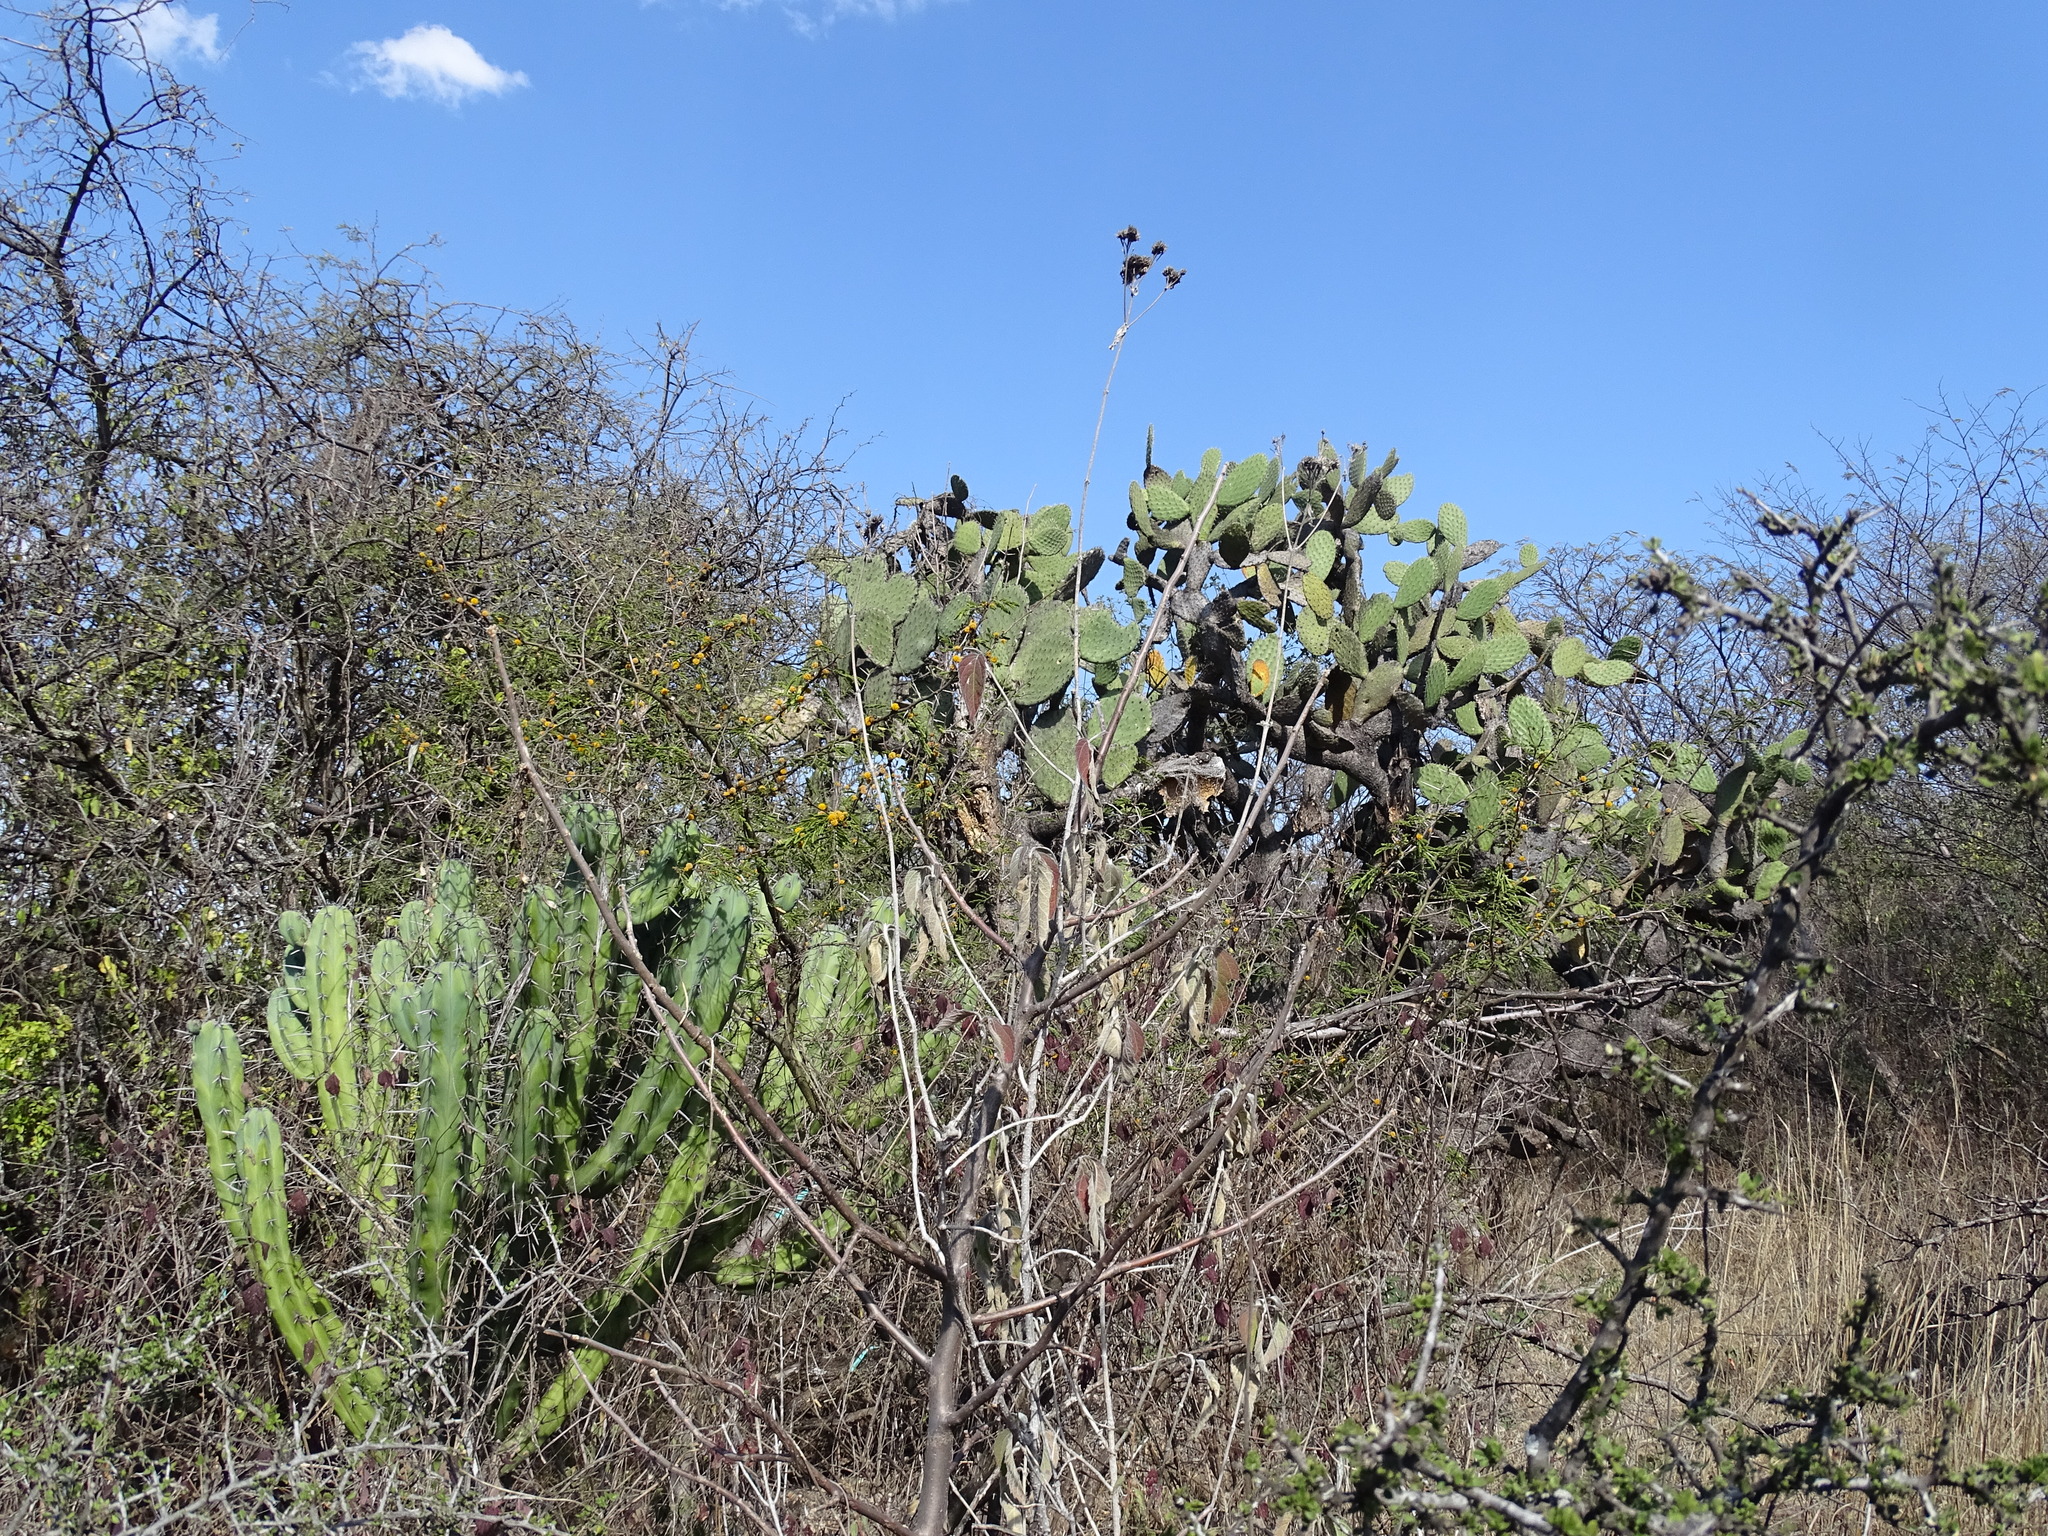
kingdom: Plantae
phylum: Tracheophyta
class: Magnoliopsida
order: Asterales
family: Asteraceae
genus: Verbesina
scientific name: Verbesina serrata
